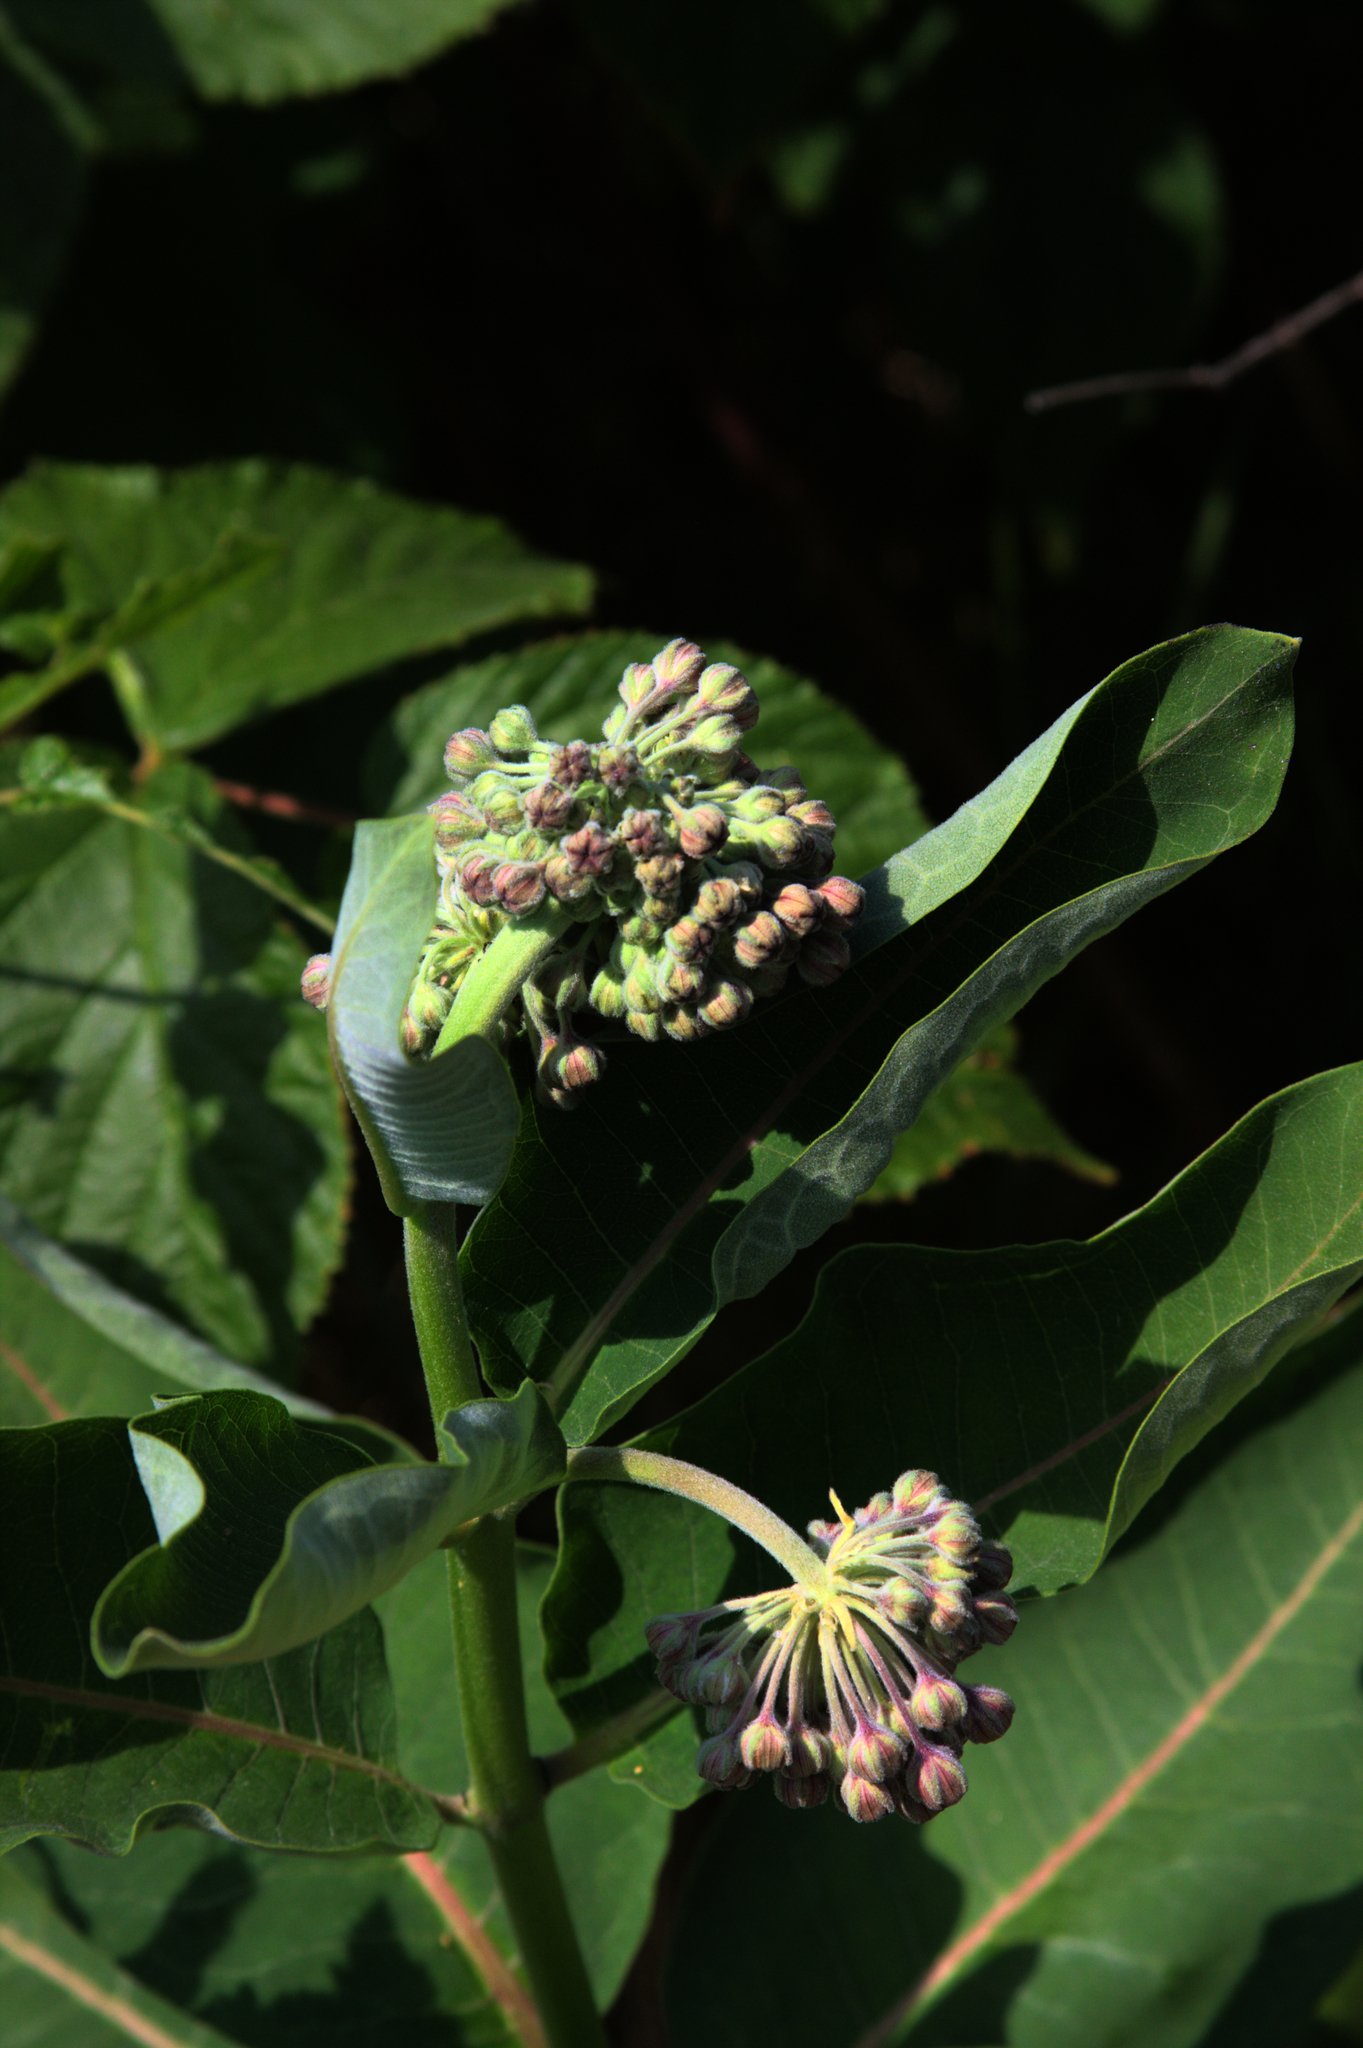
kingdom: Plantae
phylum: Tracheophyta
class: Magnoliopsida
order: Gentianales
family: Apocynaceae
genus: Asclepias
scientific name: Asclepias syriaca
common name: Common milkweed
